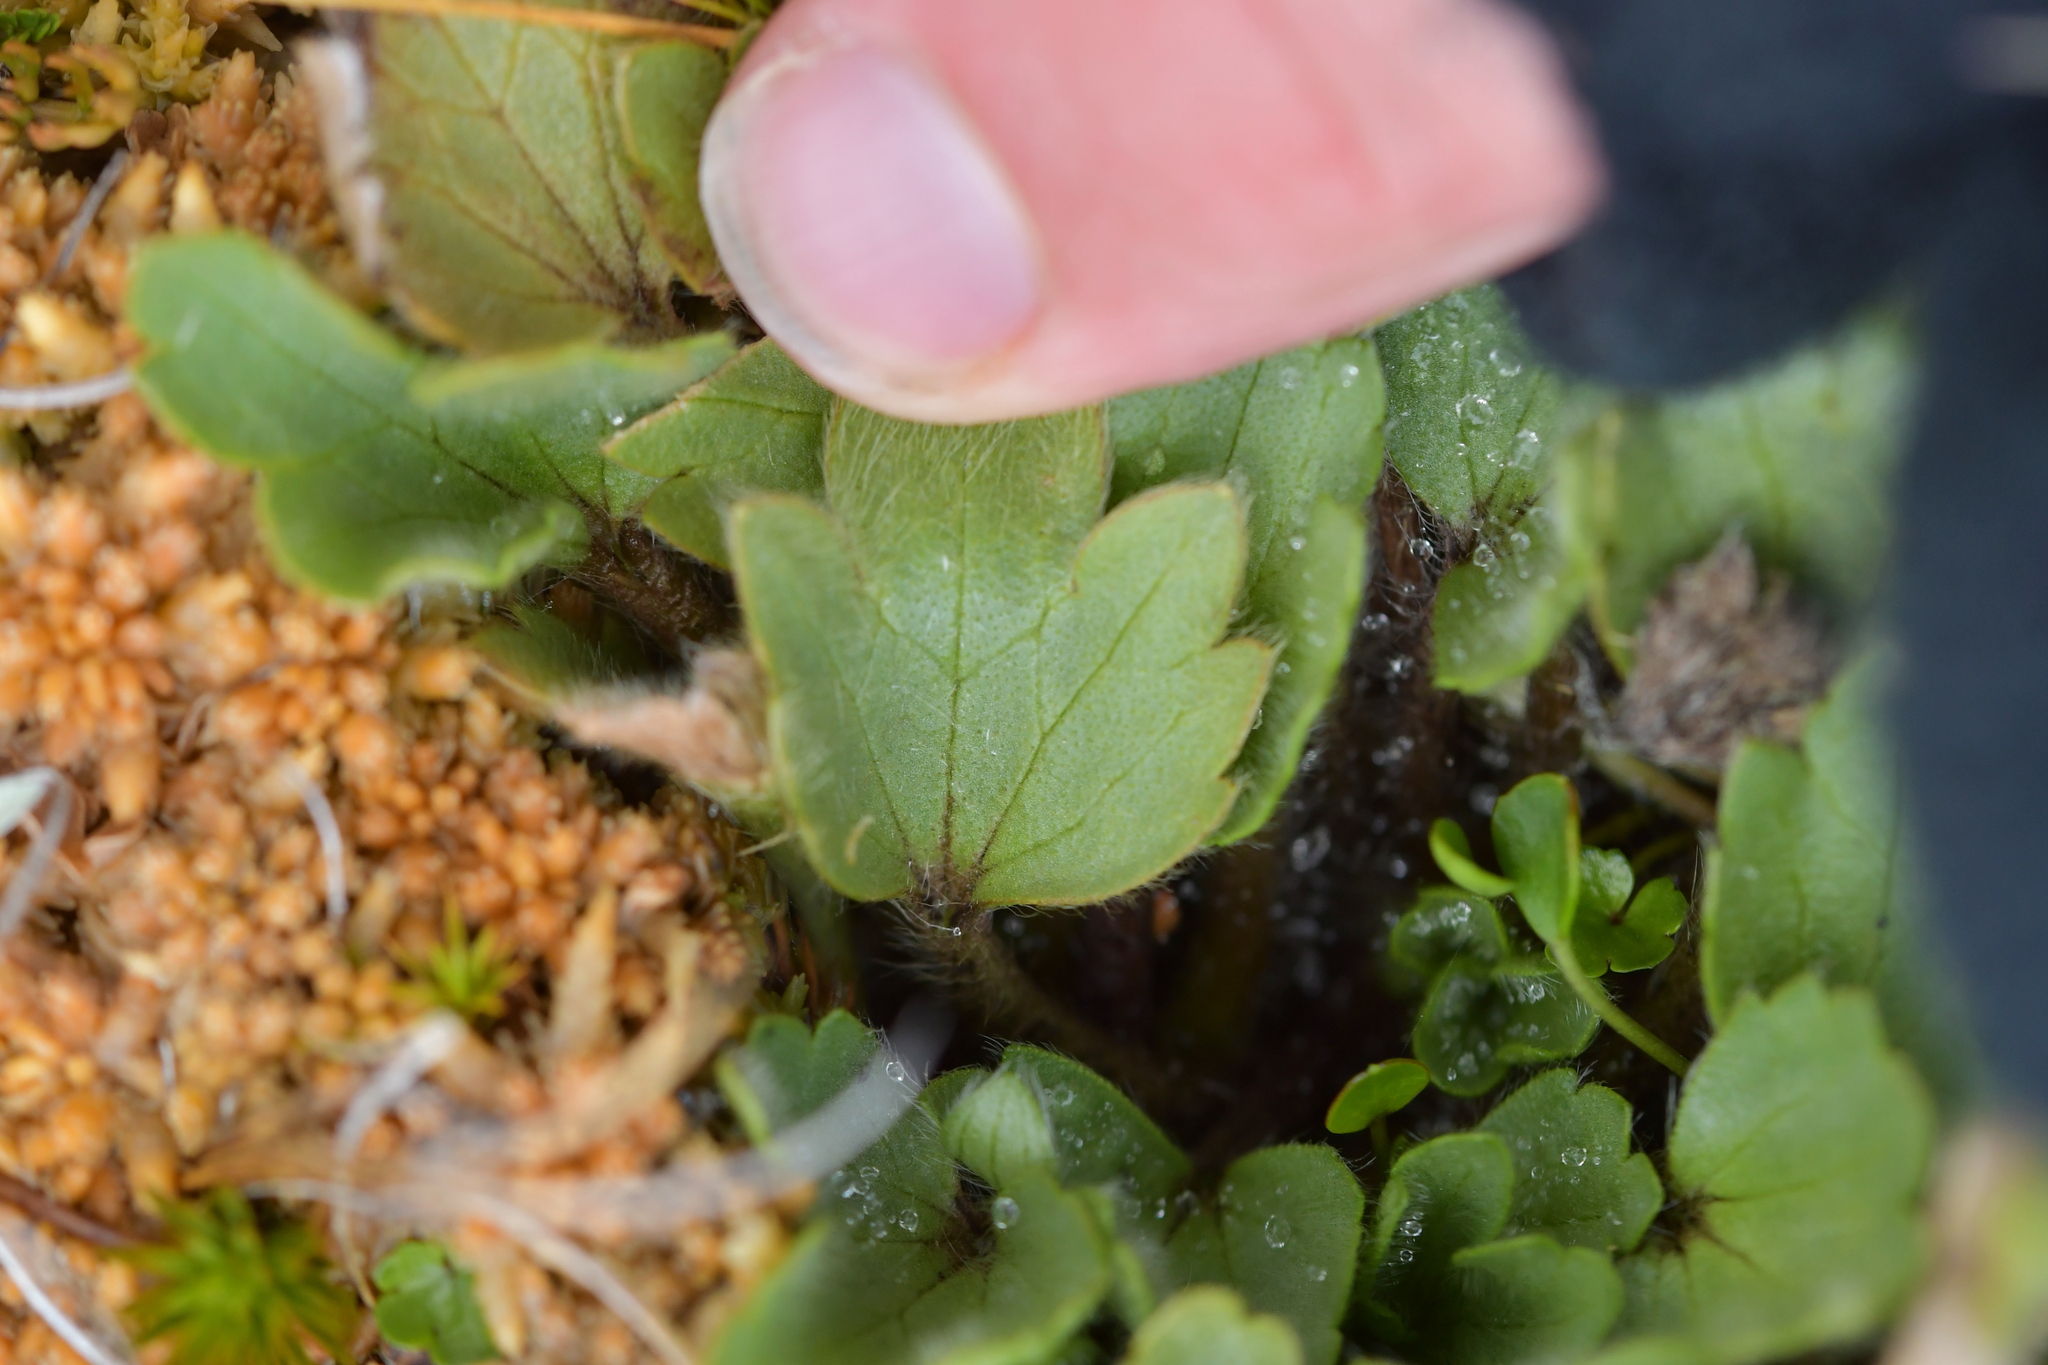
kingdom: Plantae
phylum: Tracheophyta
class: Magnoliopsida
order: Ranunculales
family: Ranunculaceae
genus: Ranunculus
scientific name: Ranunculus royi
